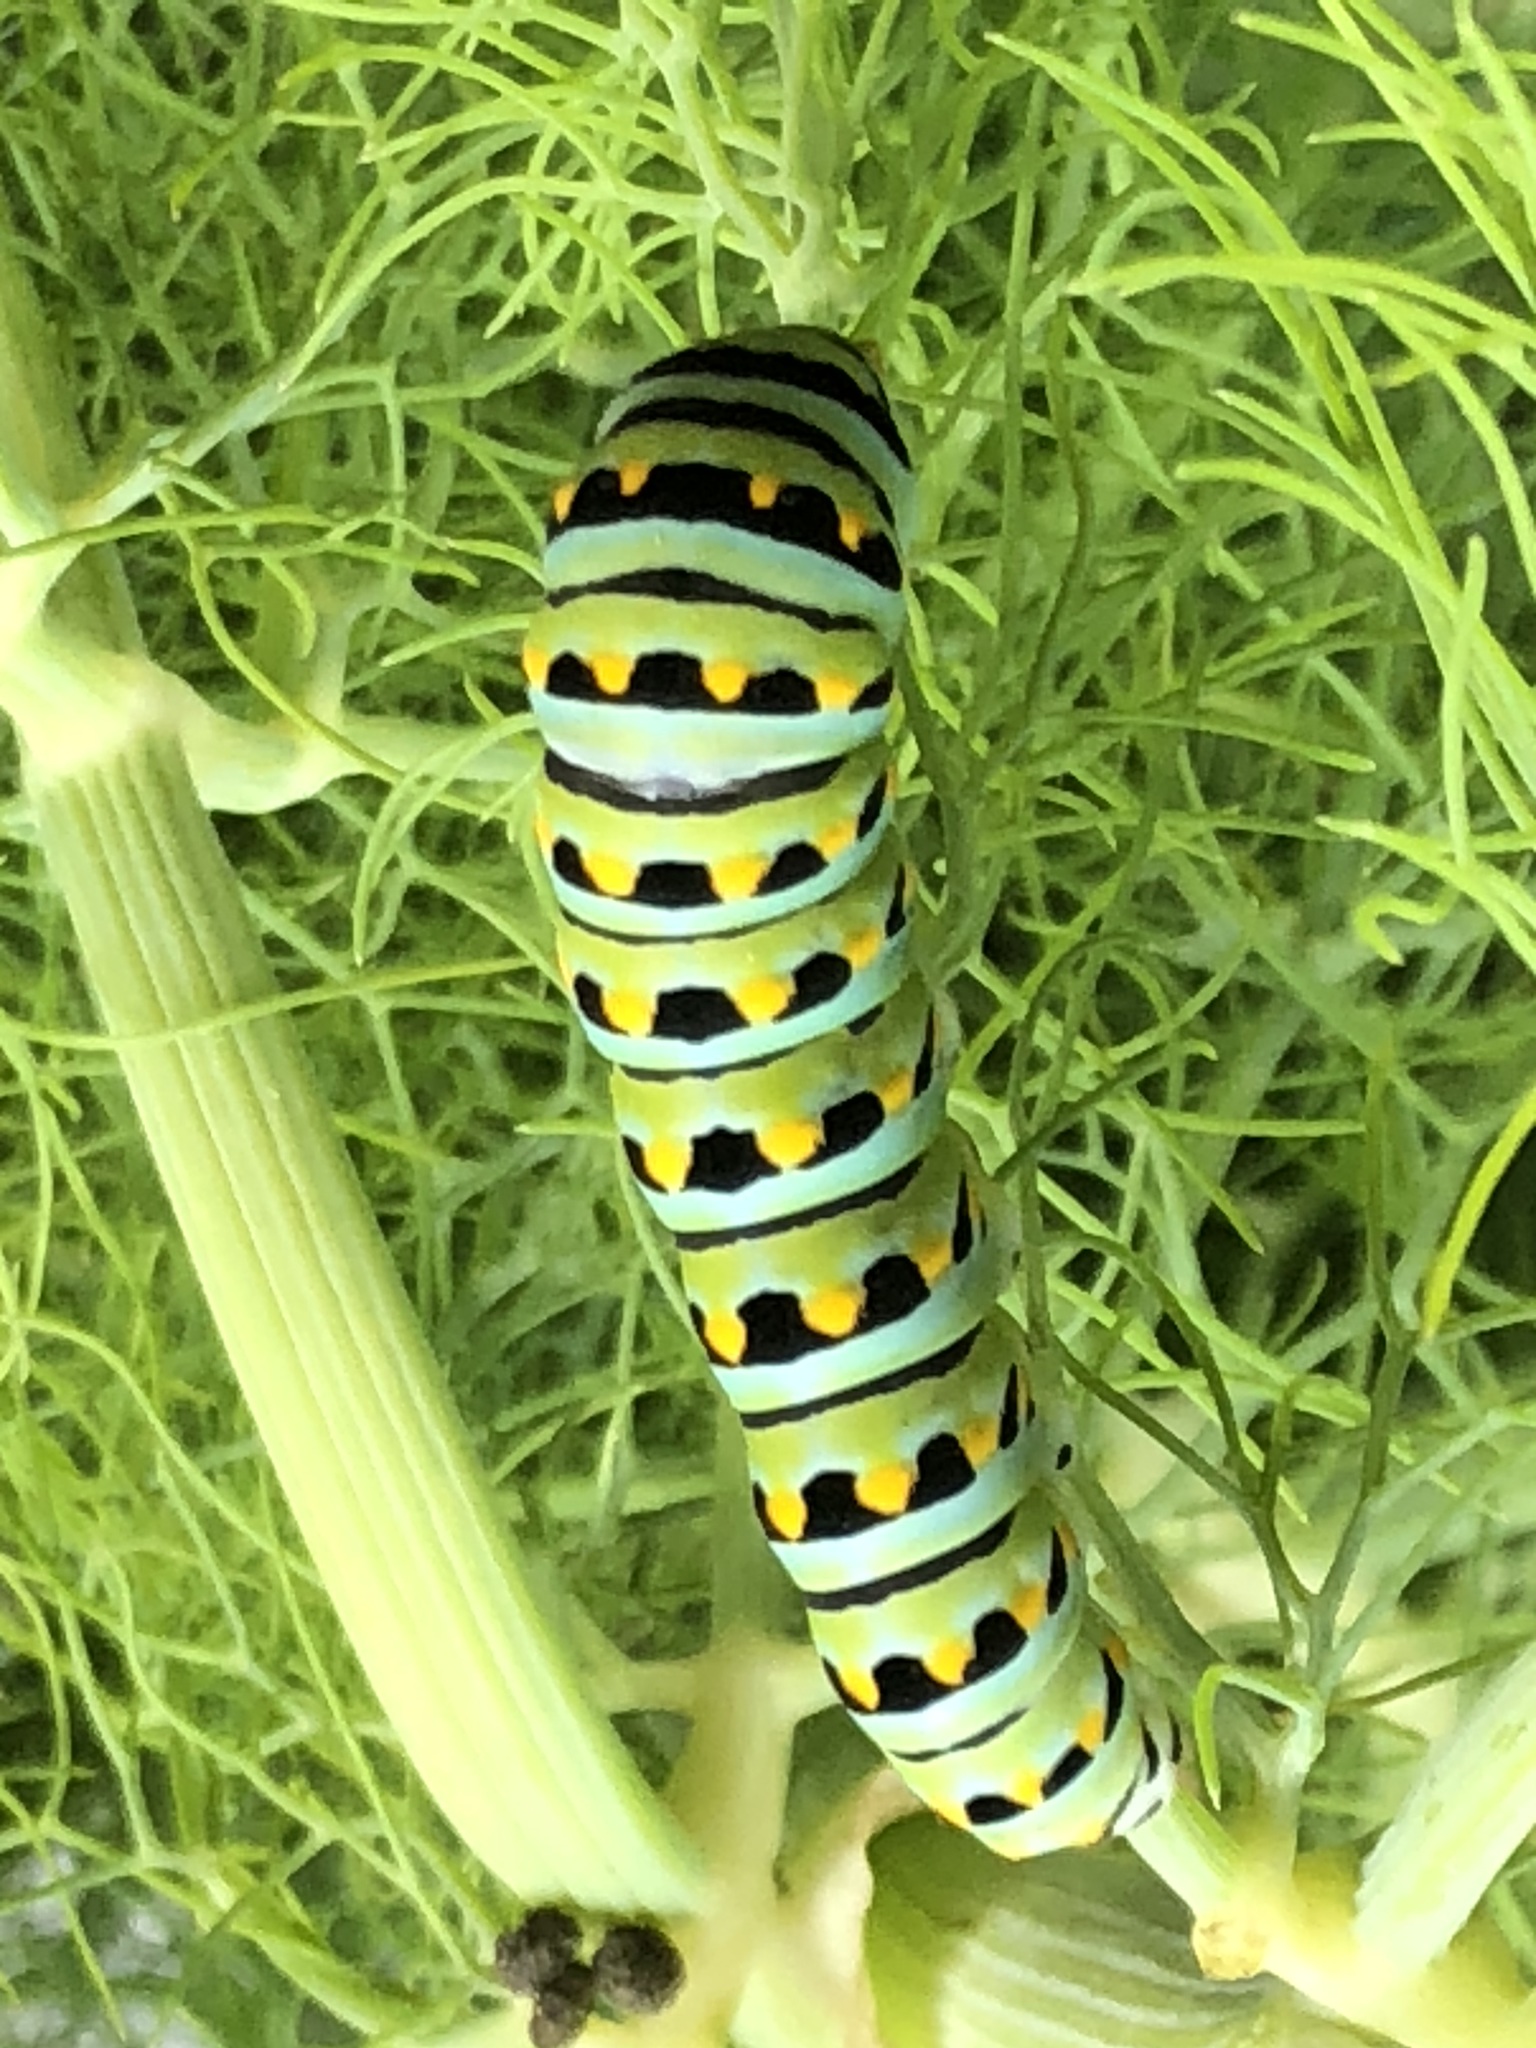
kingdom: Animalia
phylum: Arthropoda
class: Insecta
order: Lepidoptera
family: Papilionidae
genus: Papilio
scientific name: Papilio zelicaon
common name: Anise swallowtail
